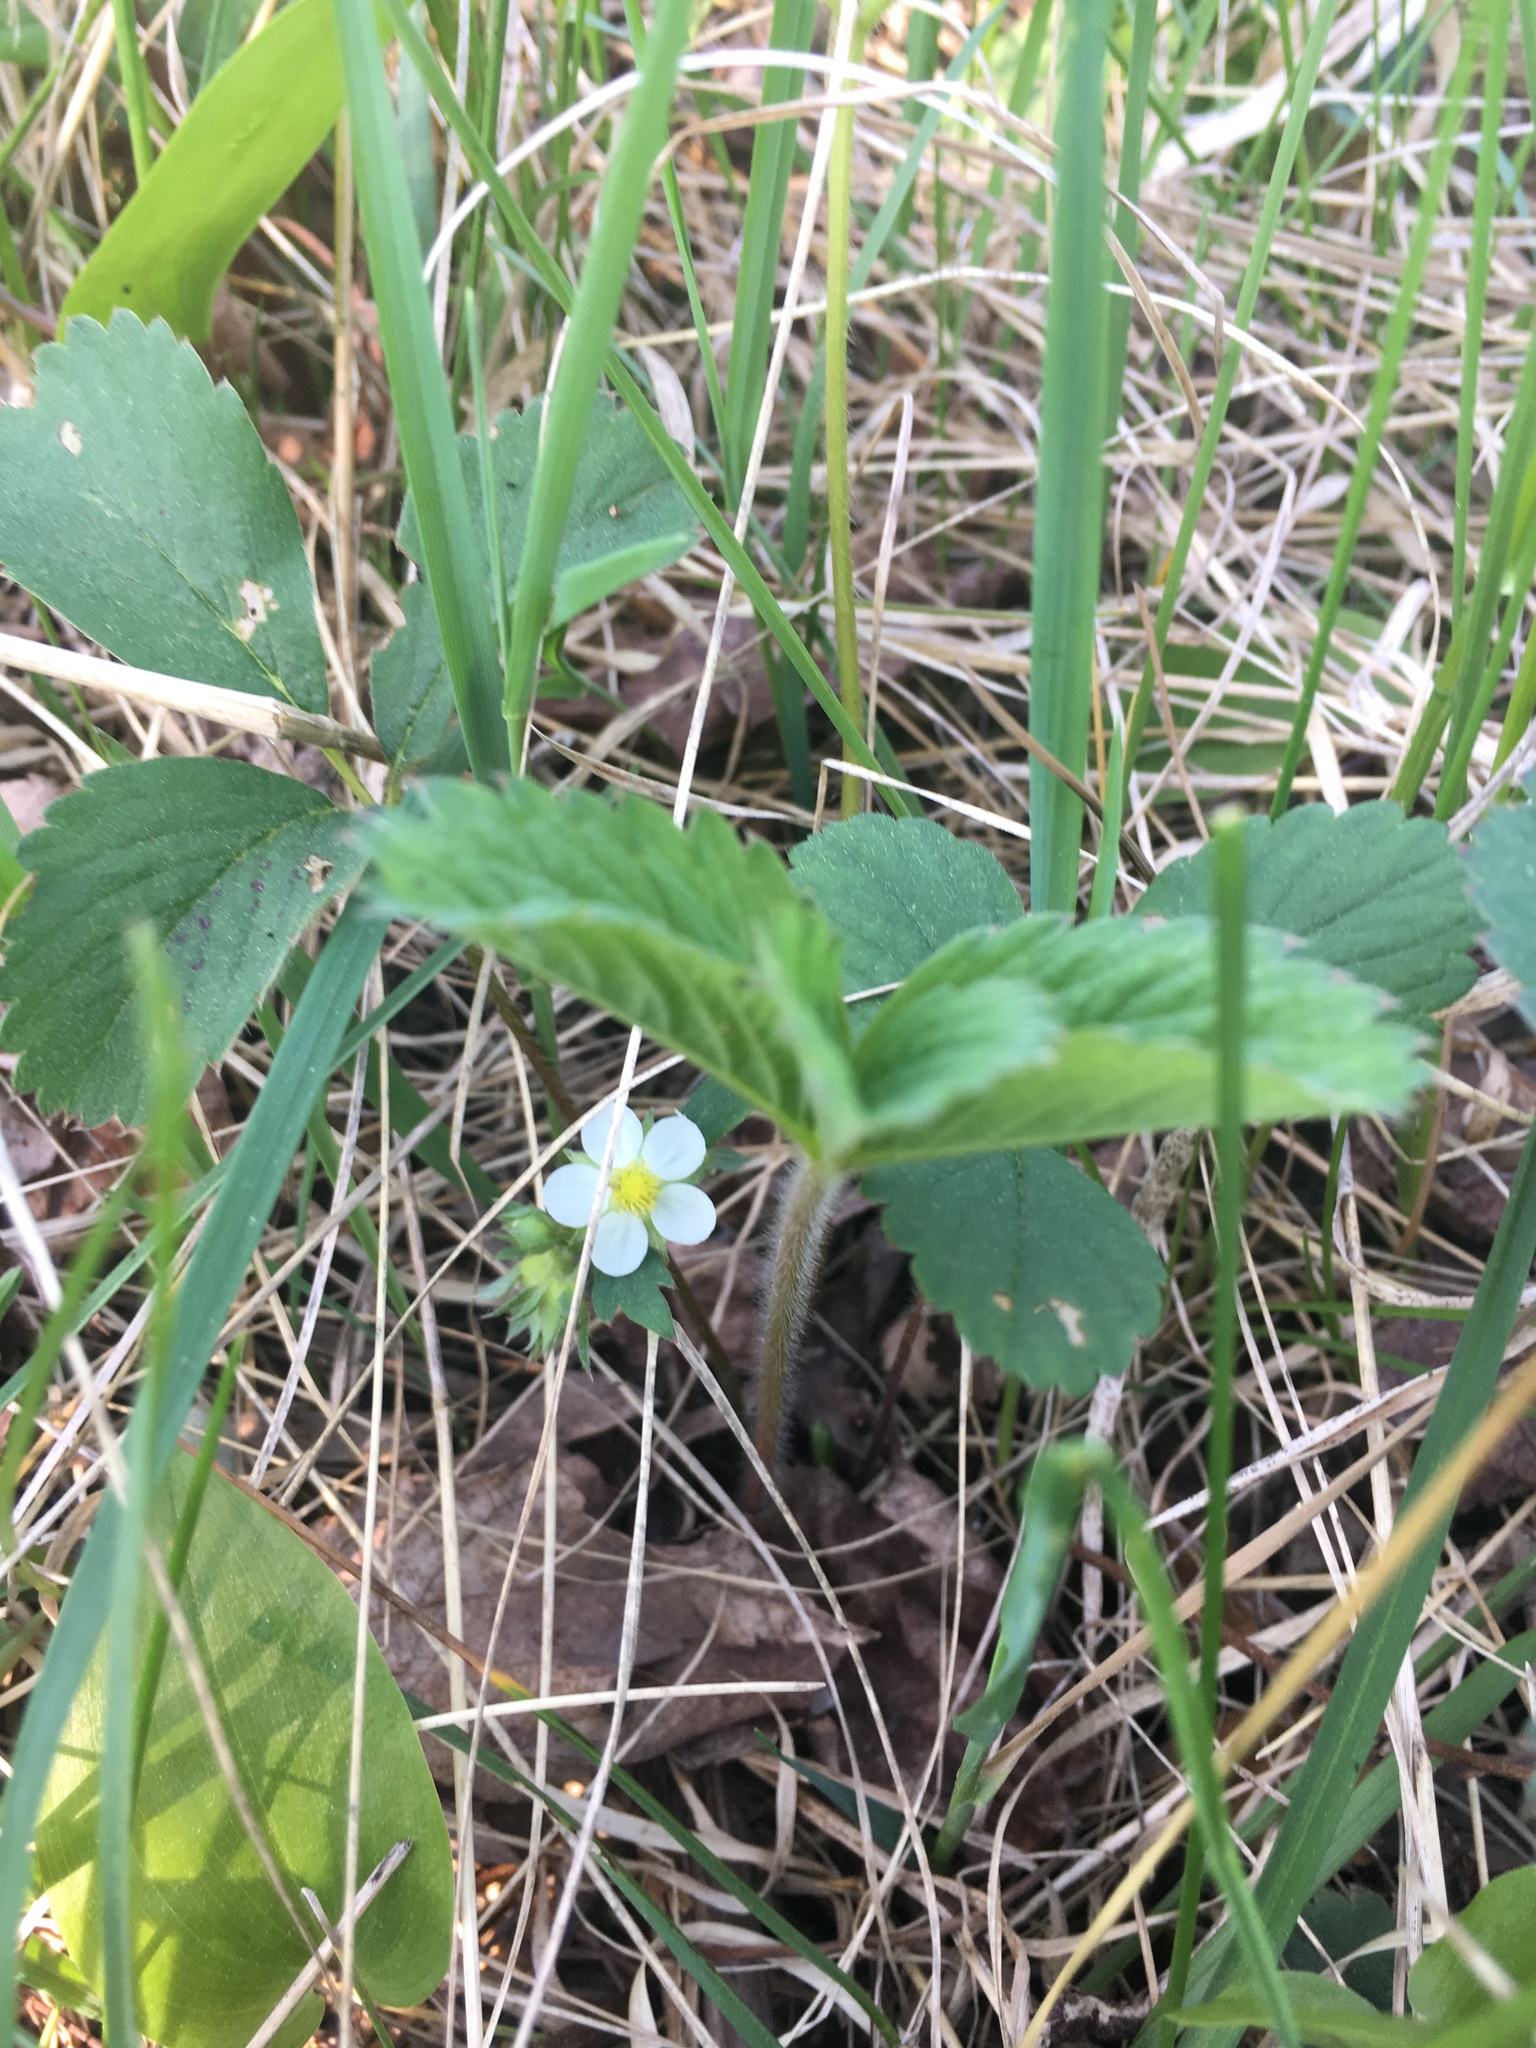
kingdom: Plantae
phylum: Tracheophyta
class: Magnoliopsida
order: Rosales
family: Rosaceae
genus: Fragaria
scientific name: Fragaria virginiana
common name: Thickleaved wild strawberry
